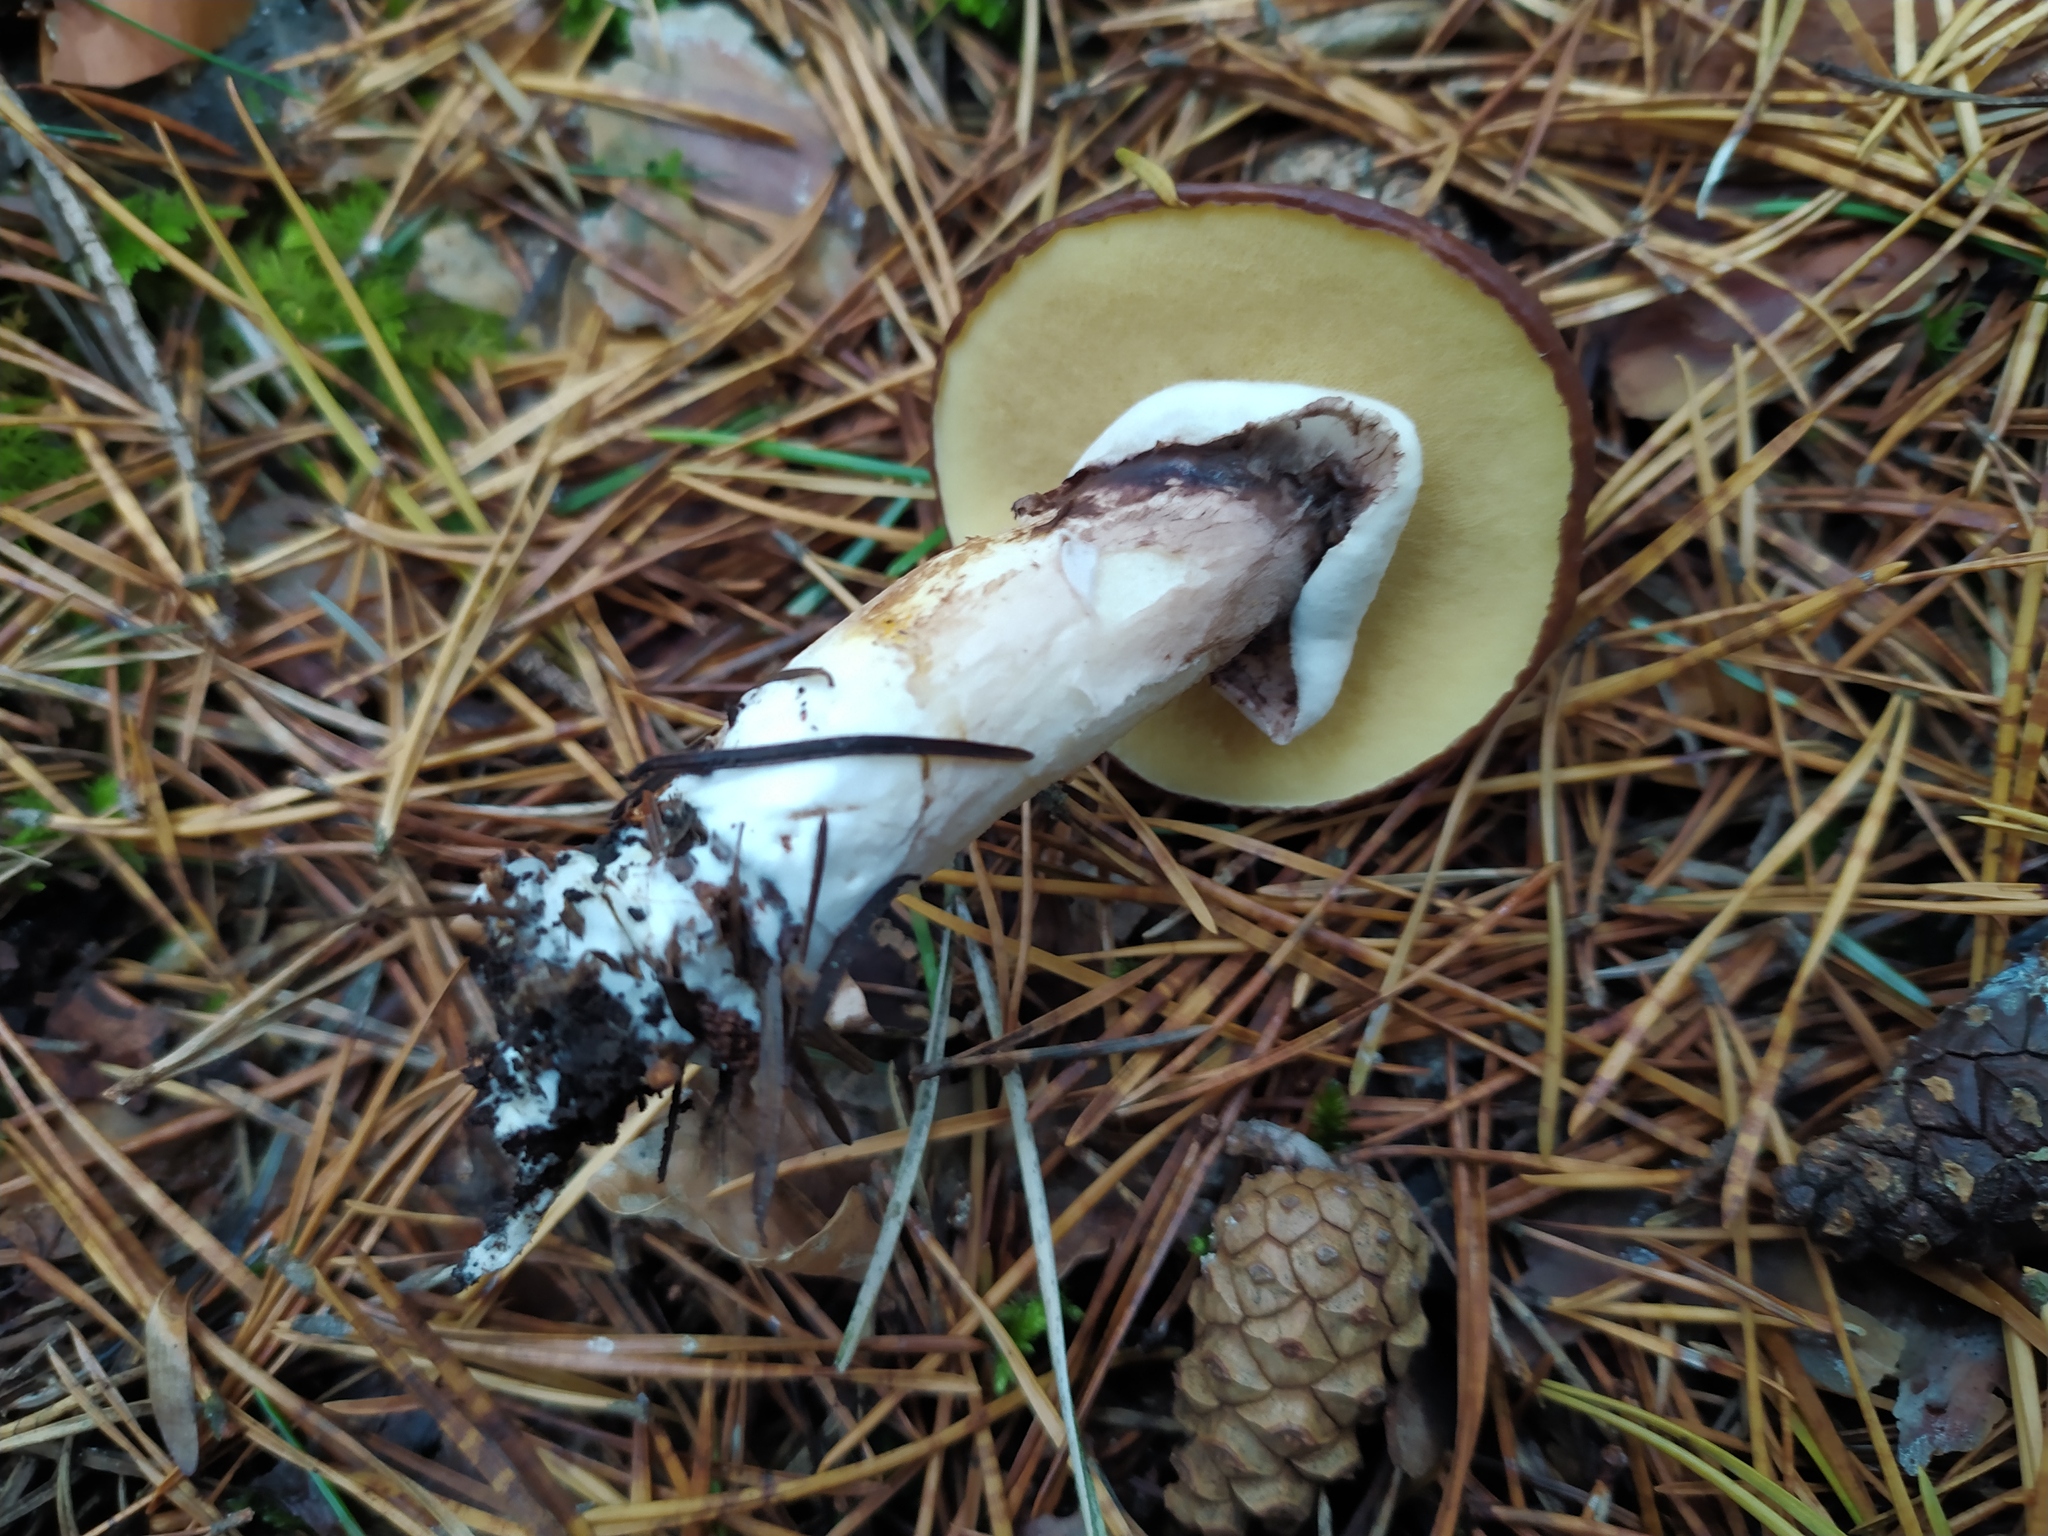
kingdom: Fungi
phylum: Basidiomycota
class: Agaricomycetes
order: Boletales
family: Suillaceae
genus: Suillus
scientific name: Suillus luteus
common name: Slippery jack
